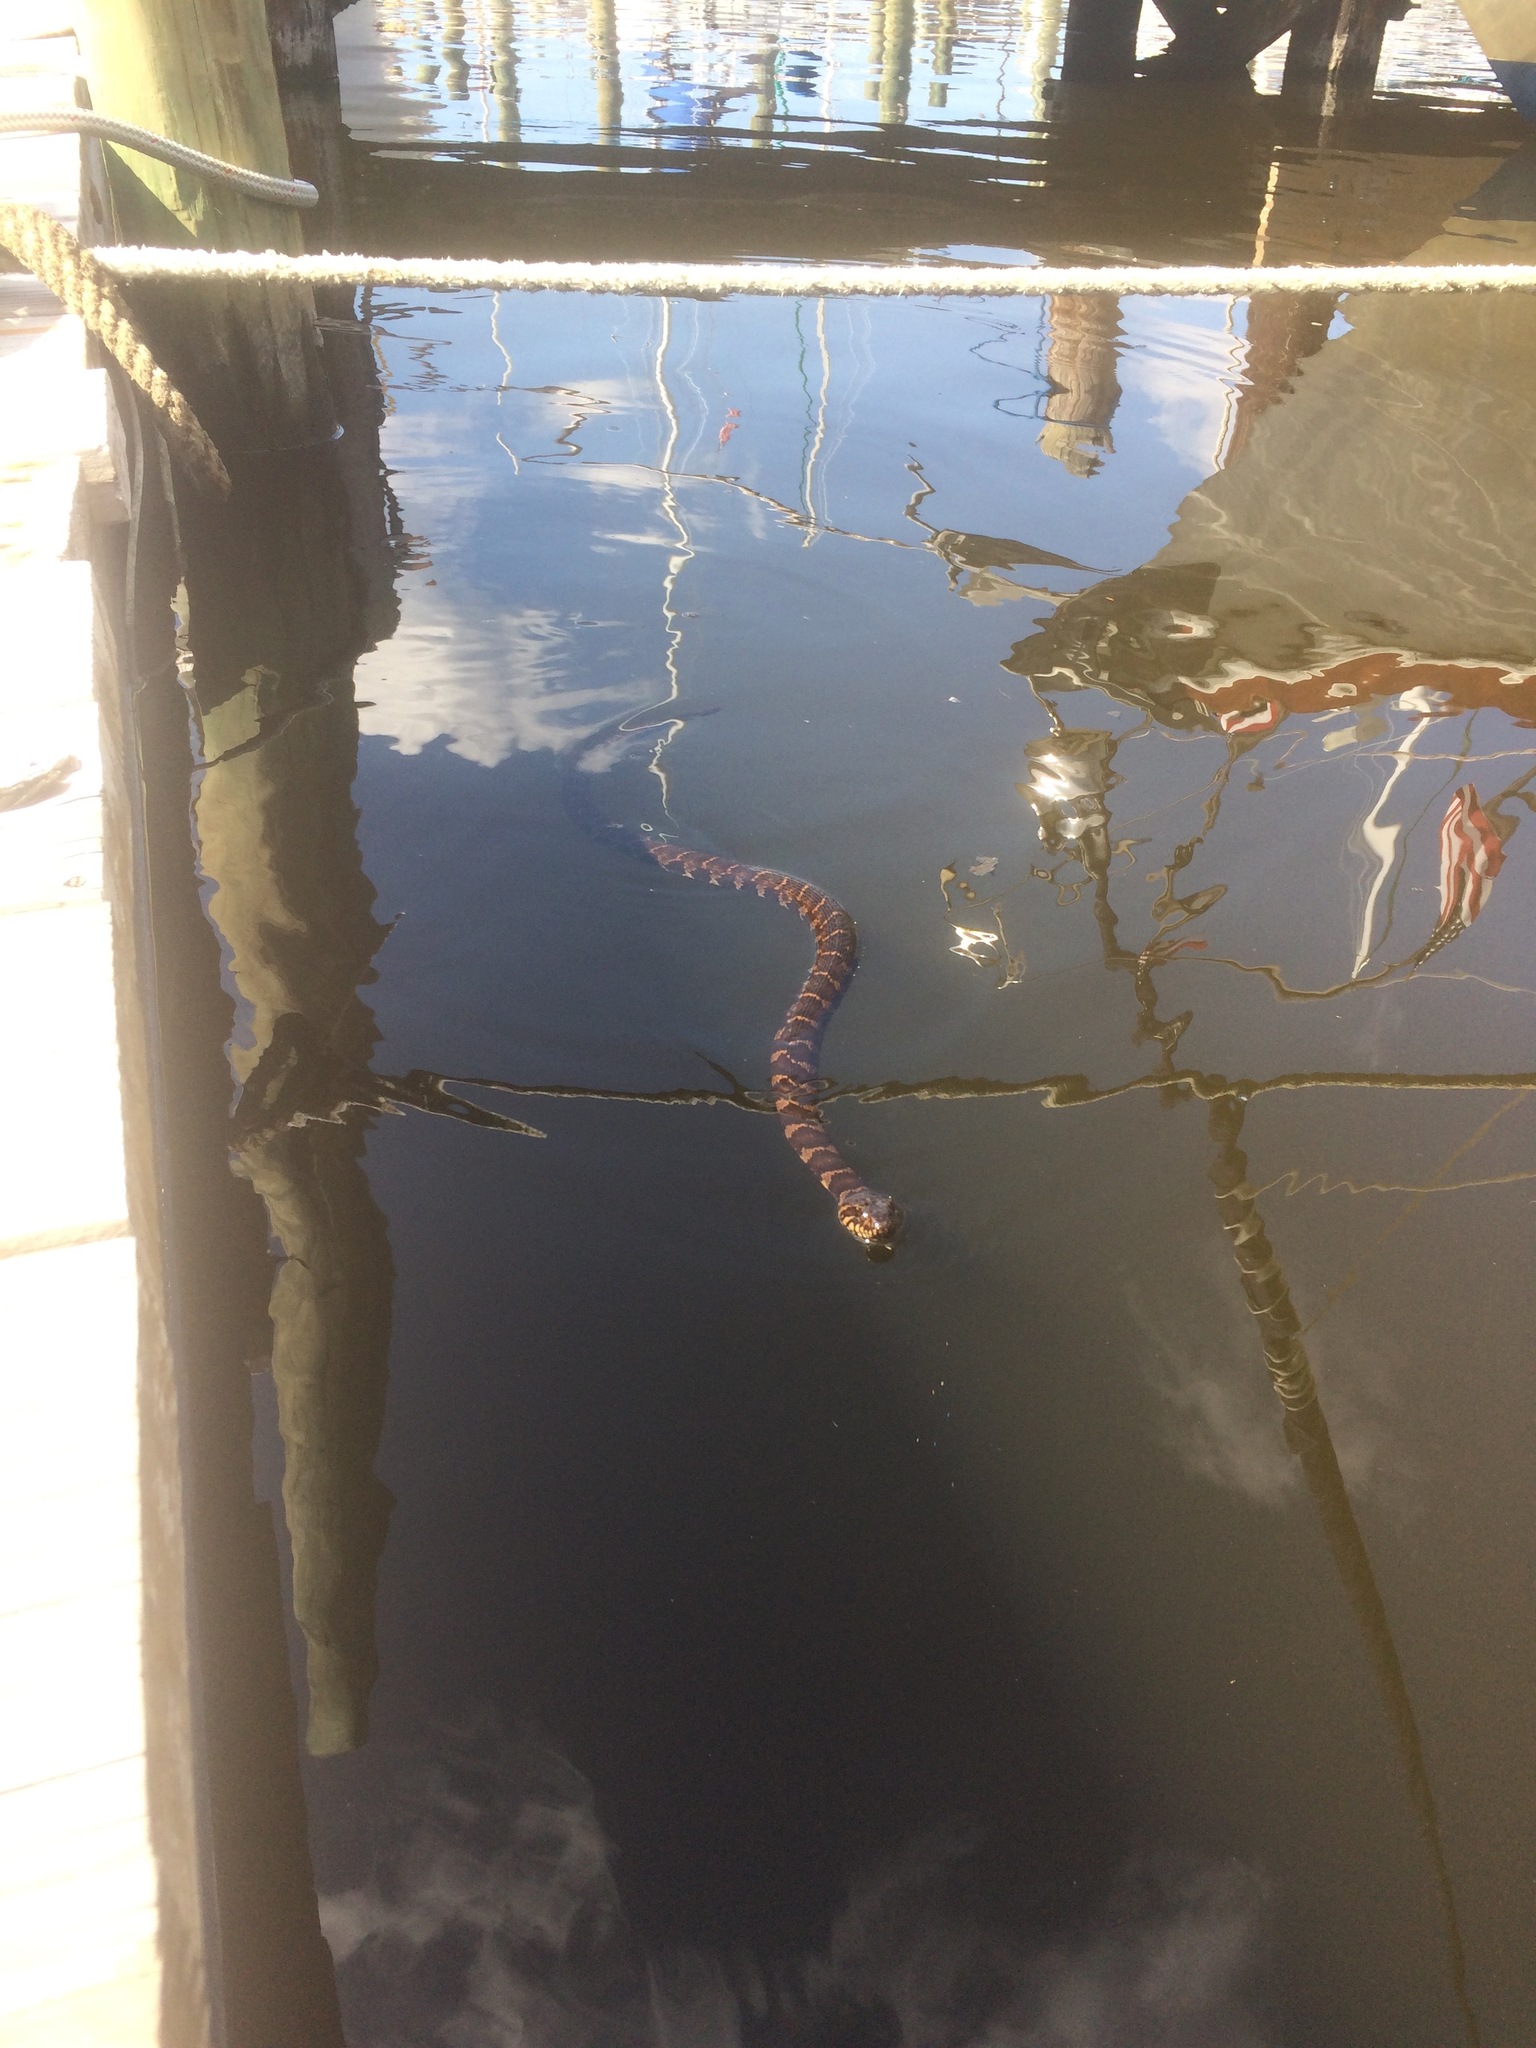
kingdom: Animalia
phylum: Chordata
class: Squamata
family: Colubridae
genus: Nerodia
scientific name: Nerodia sipedon
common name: Northern water snake
